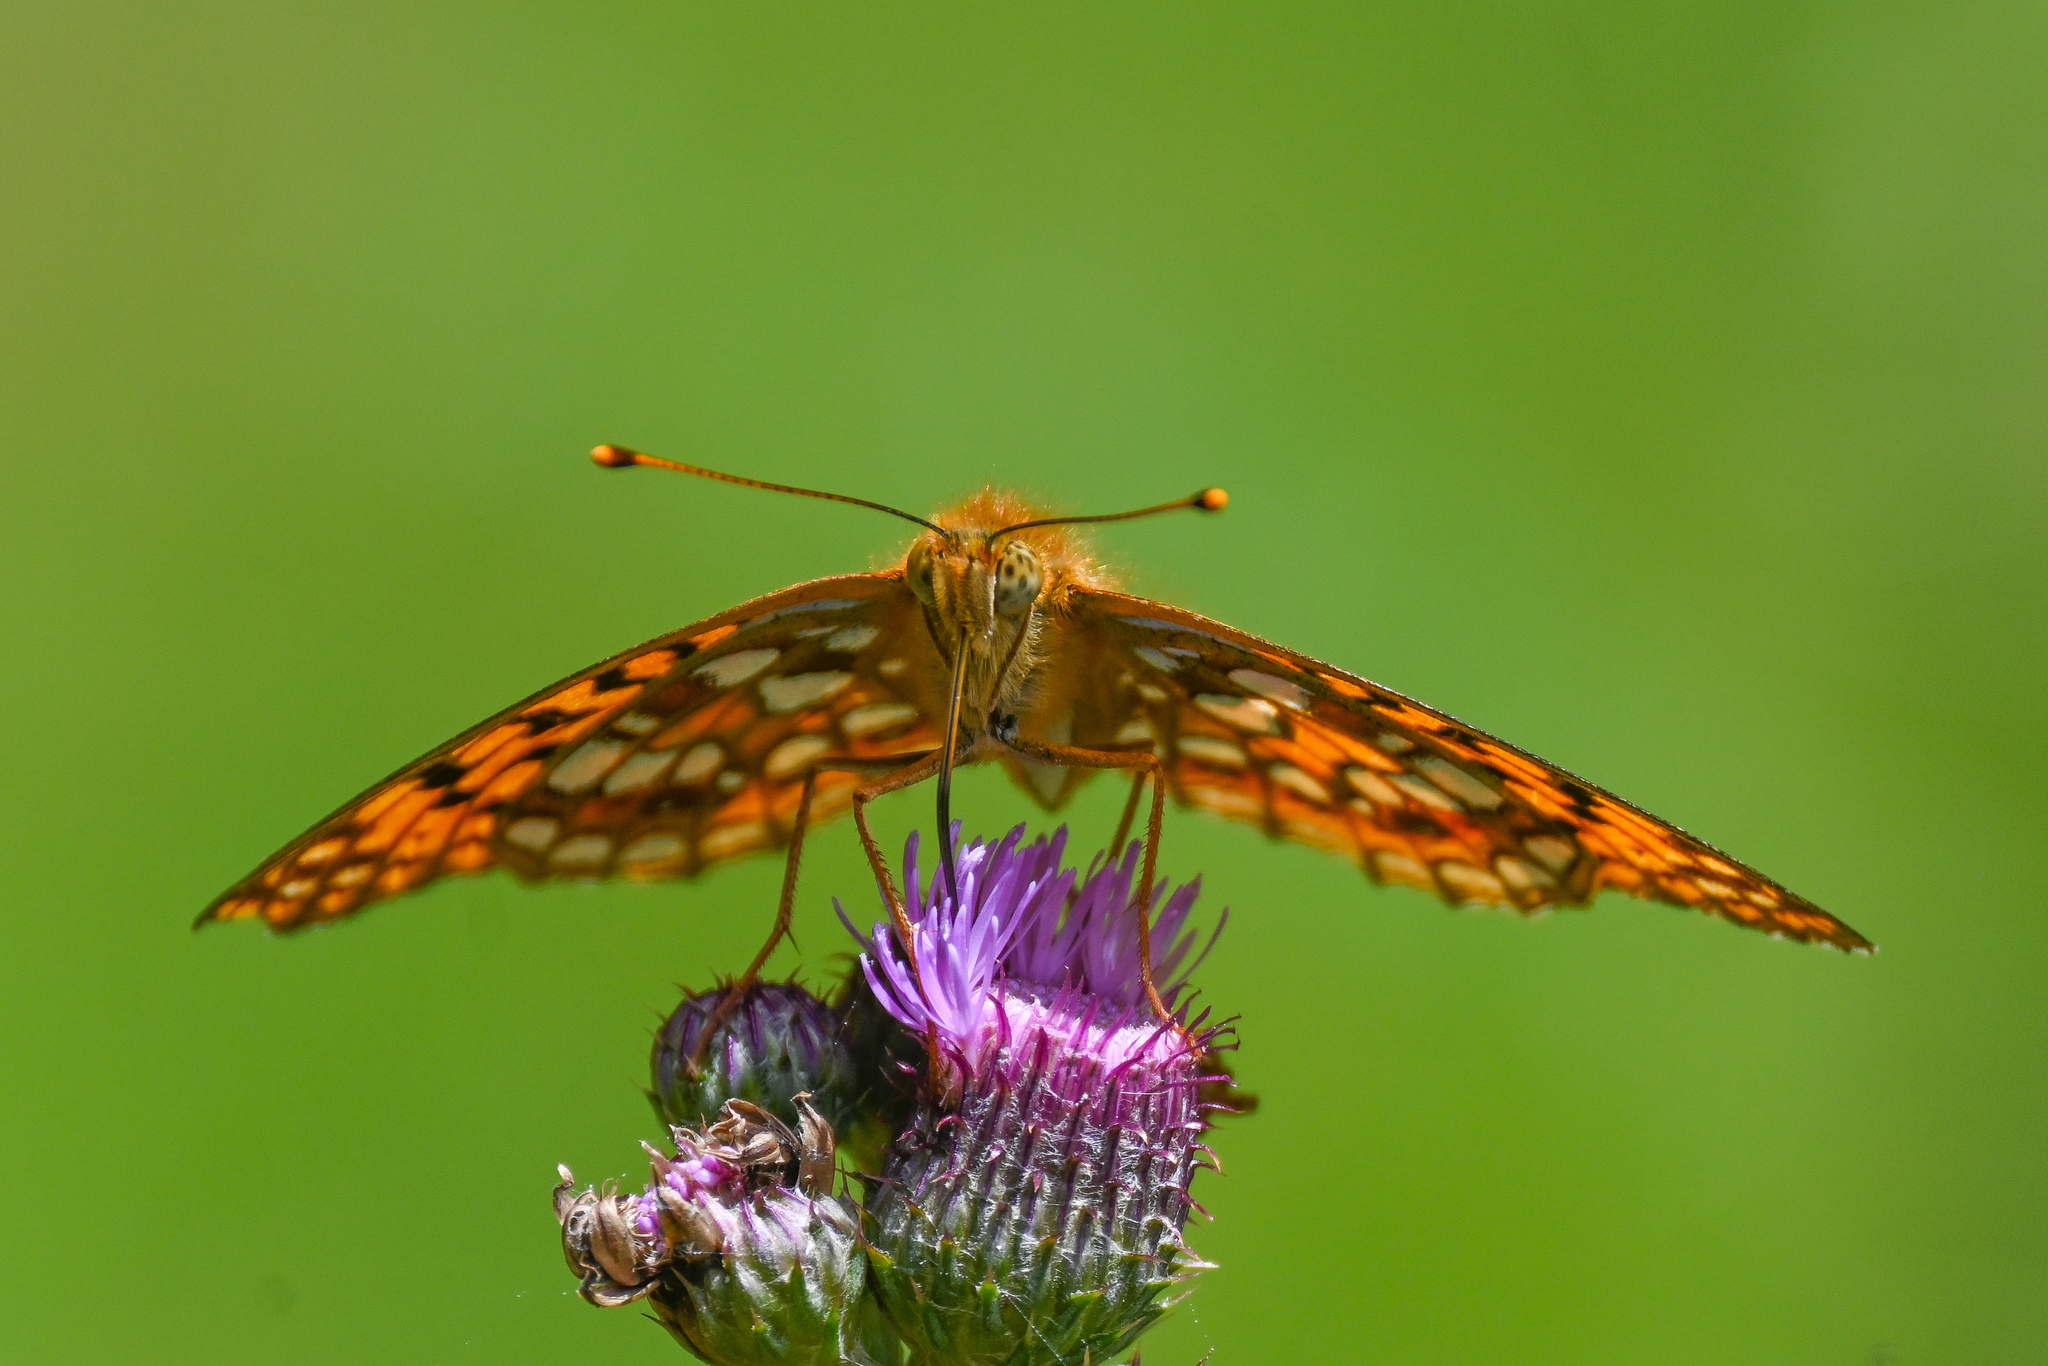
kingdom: Animalia
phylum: Arthropoda
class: Insecta
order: Lepidoptera
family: Nymphalidae
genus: Fabriciana
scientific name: Fabriciana adippe
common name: High brown fritillary
